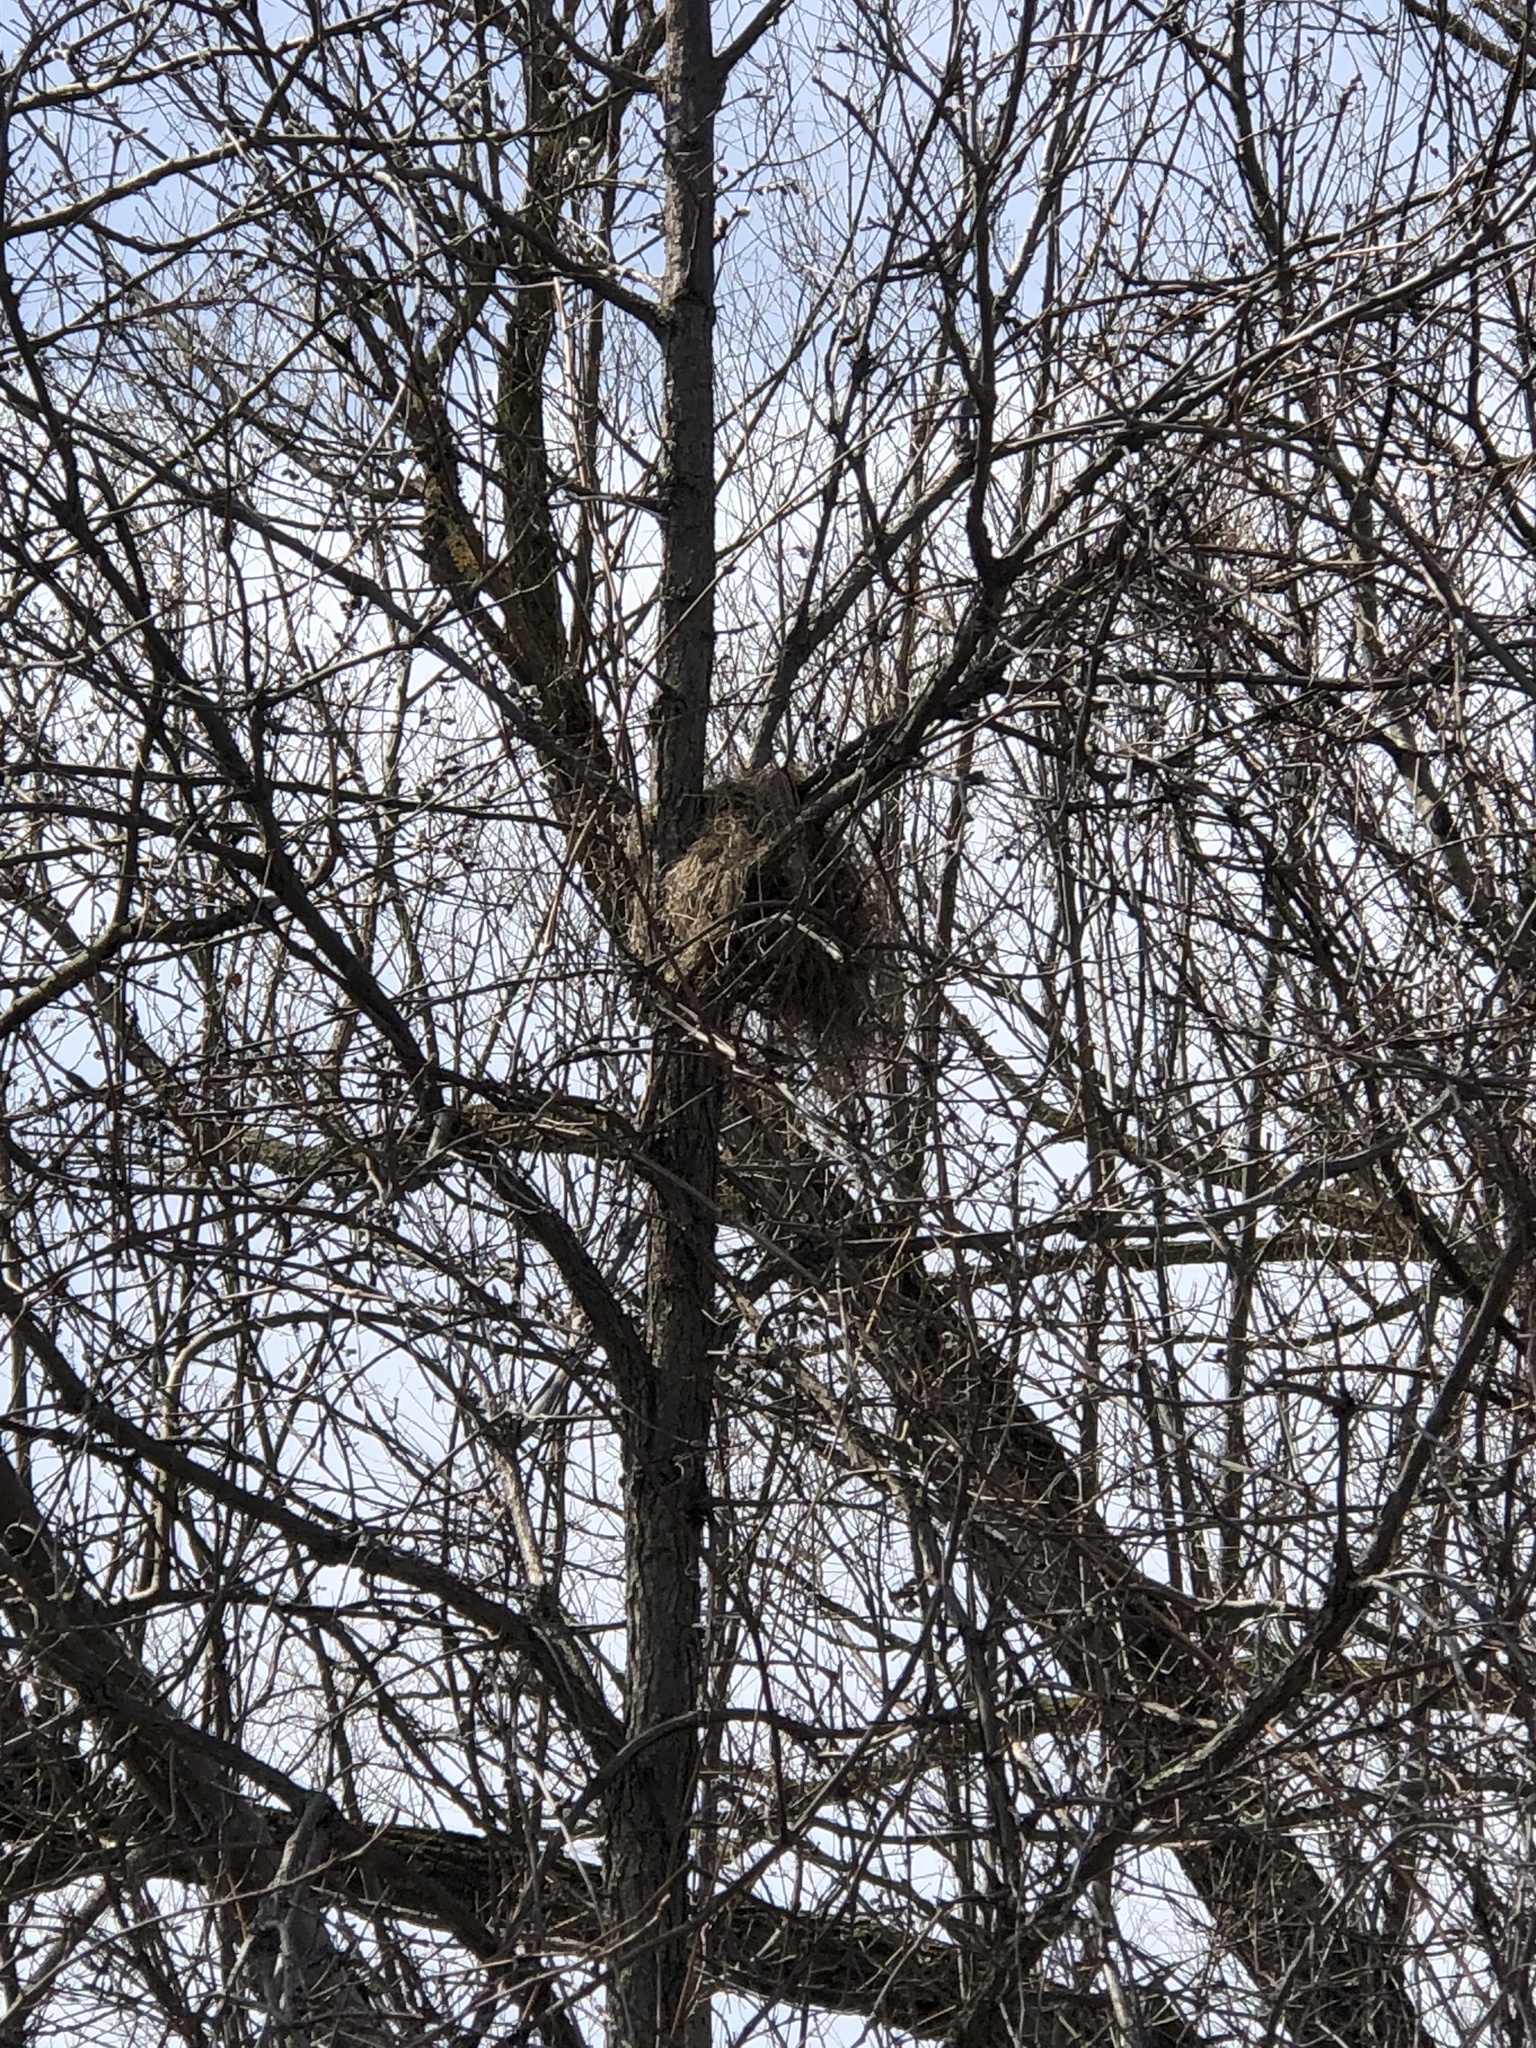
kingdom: Animalia
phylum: Chordata
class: Mammalia
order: Rodentia
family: Sciuridae
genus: Sciurus
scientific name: Sciurus carolinensis
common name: Eastern gray squirrel
